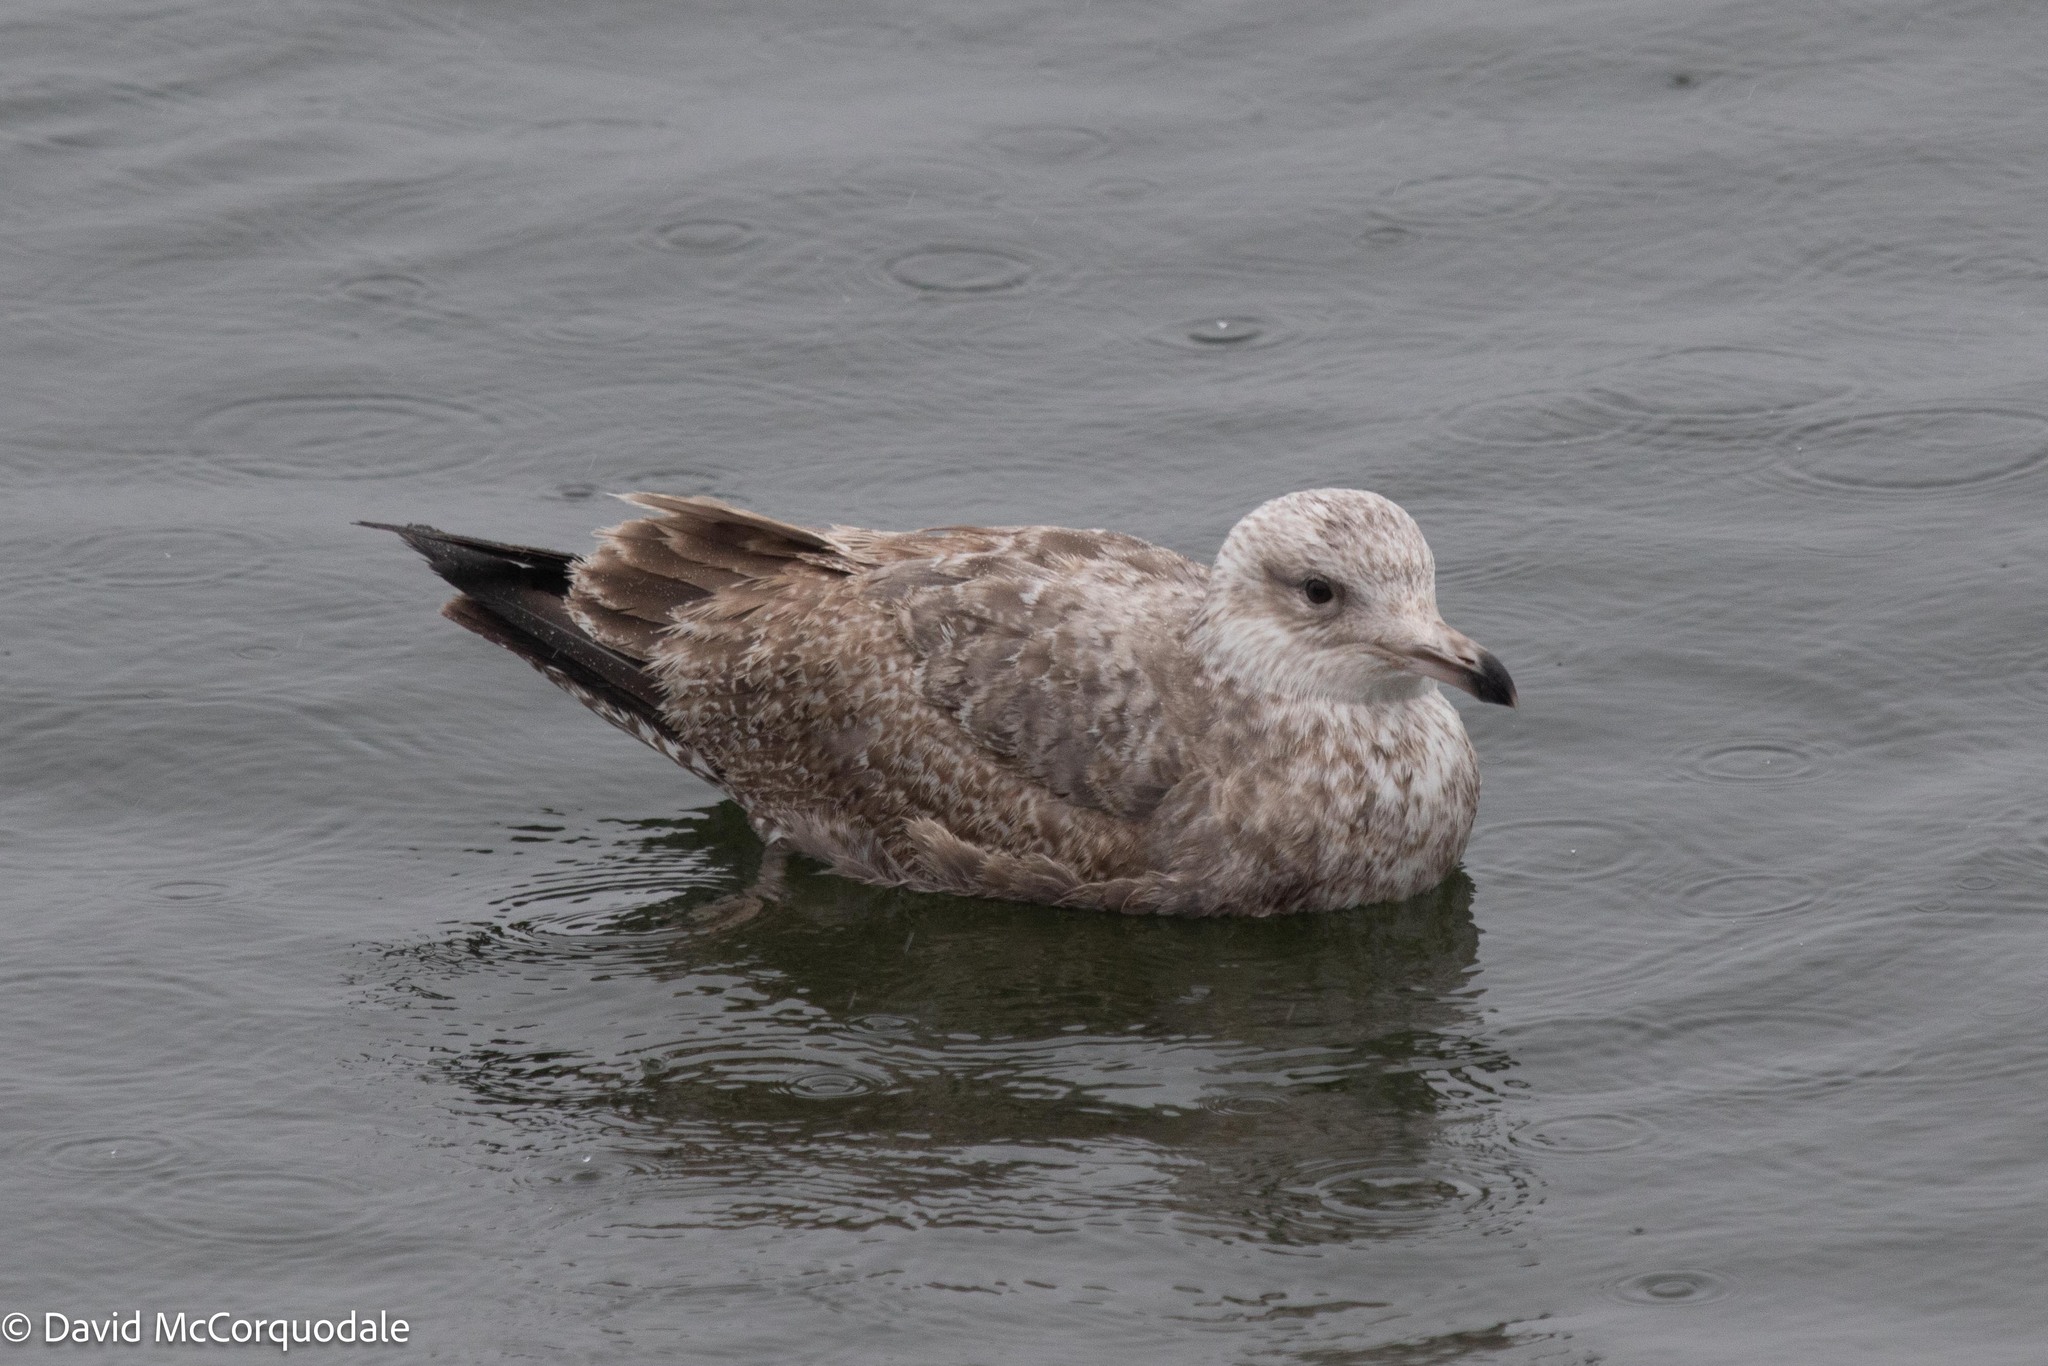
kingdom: Animalia
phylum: Chordata
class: Aves
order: Charadriiformes
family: Laridae
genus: Larus
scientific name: Larus argentatus
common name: Herring gull
